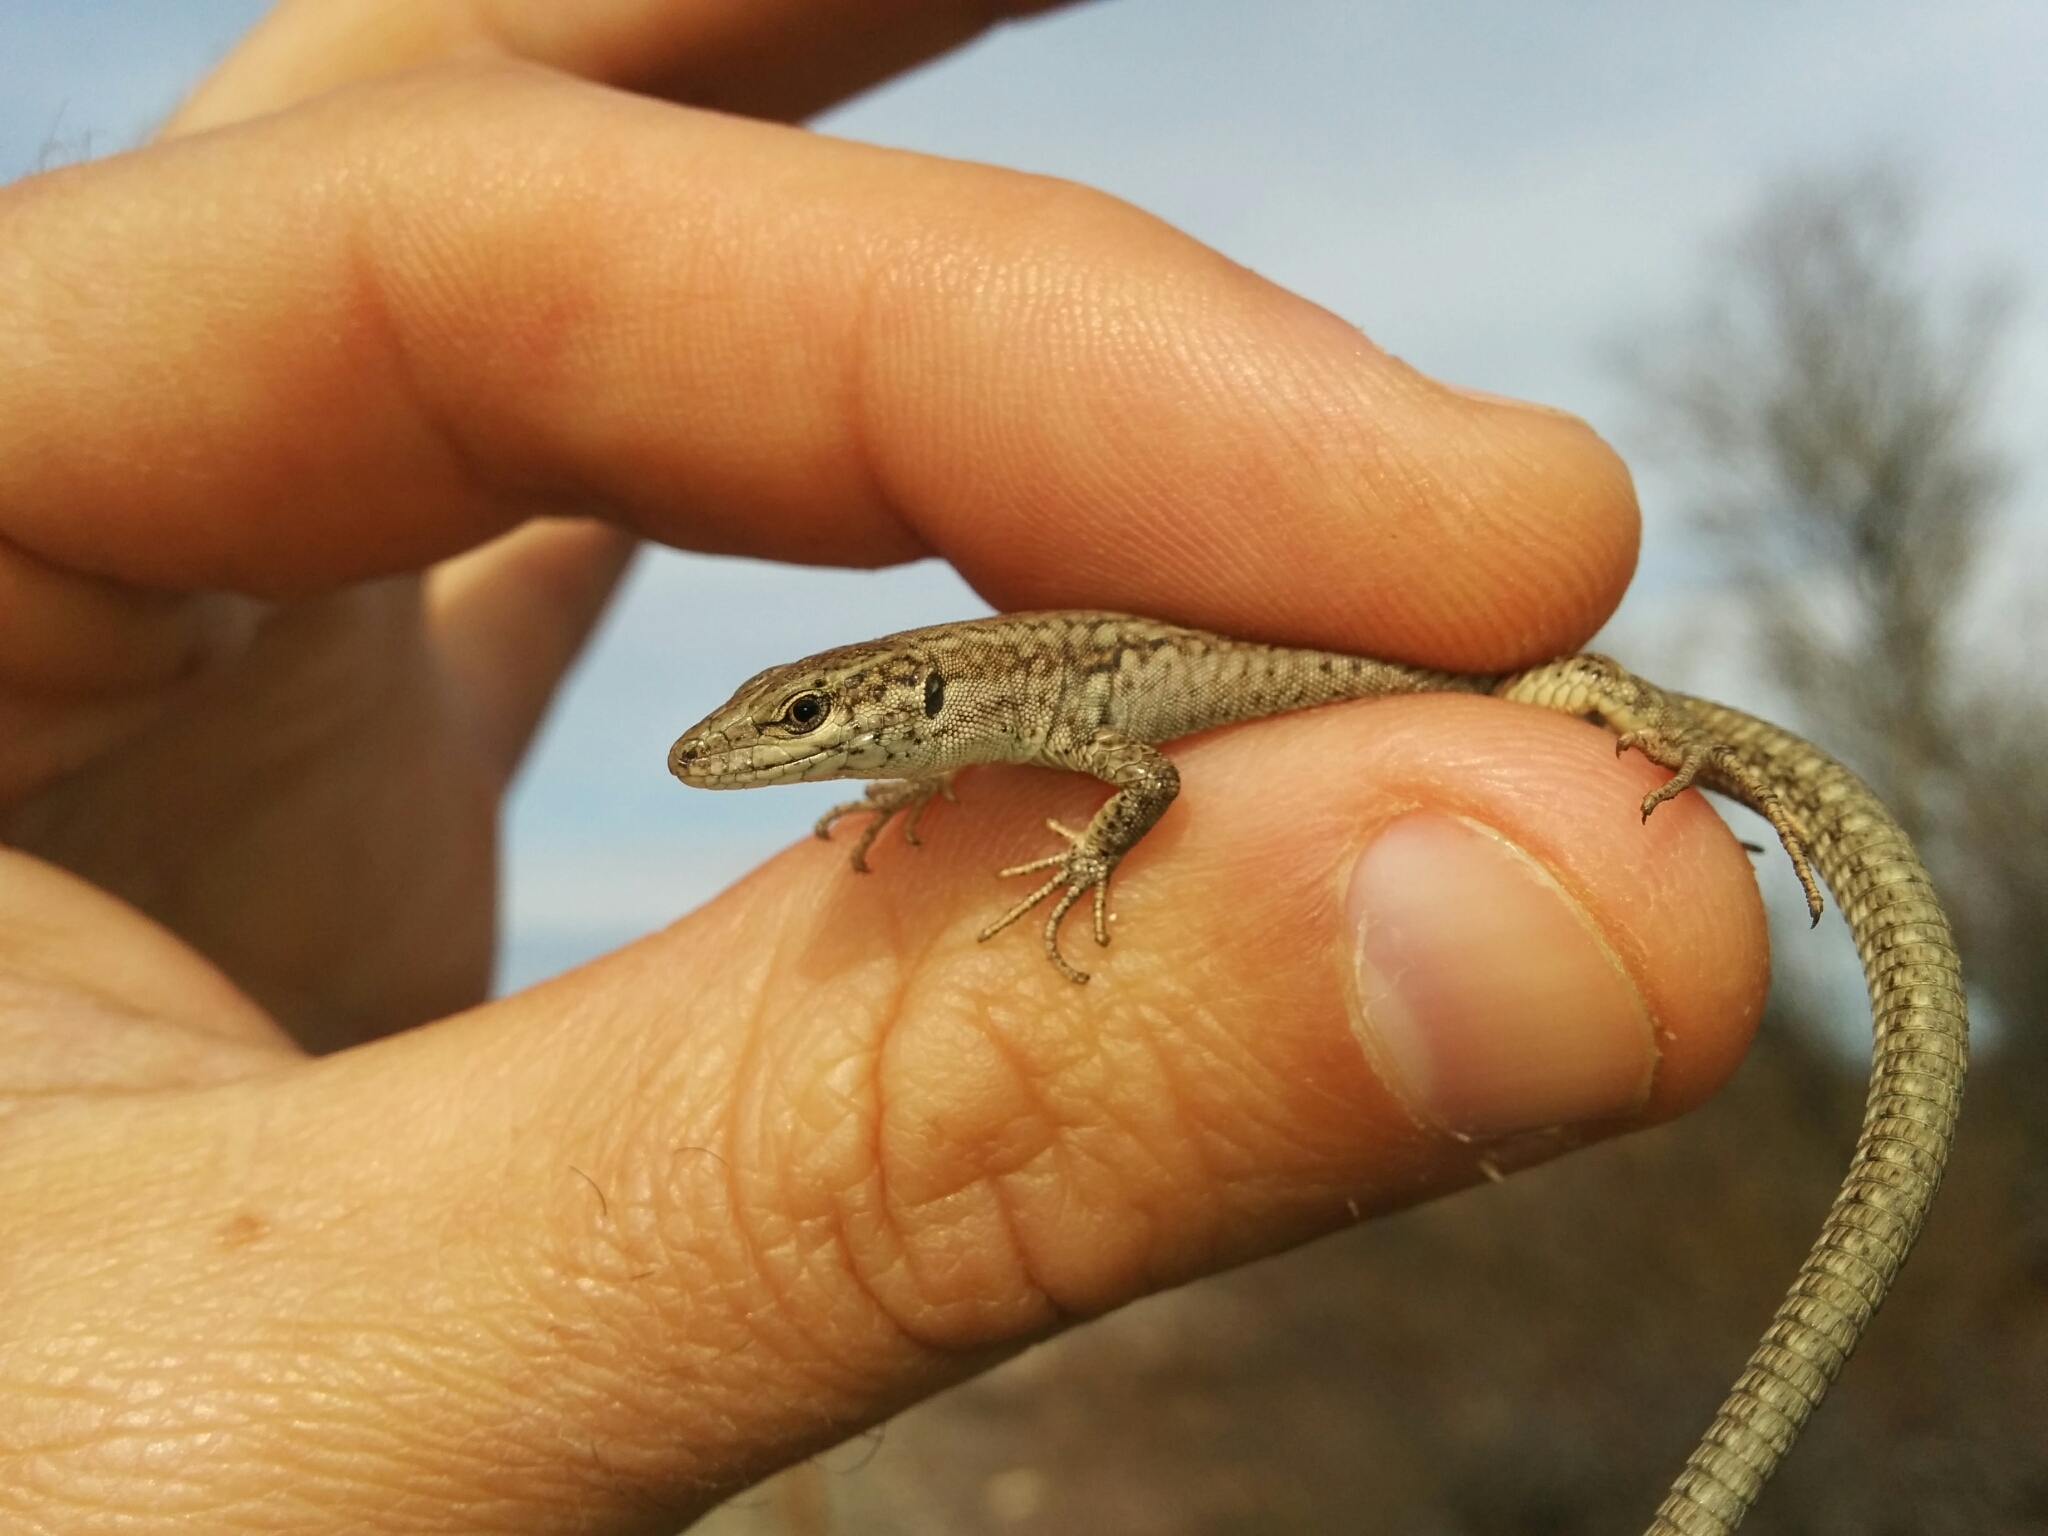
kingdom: Animalia
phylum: Chordata
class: Squamata
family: Lacertidae
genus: Podarcis
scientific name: Podarcis liolepis
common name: Catalonian wall lizard
